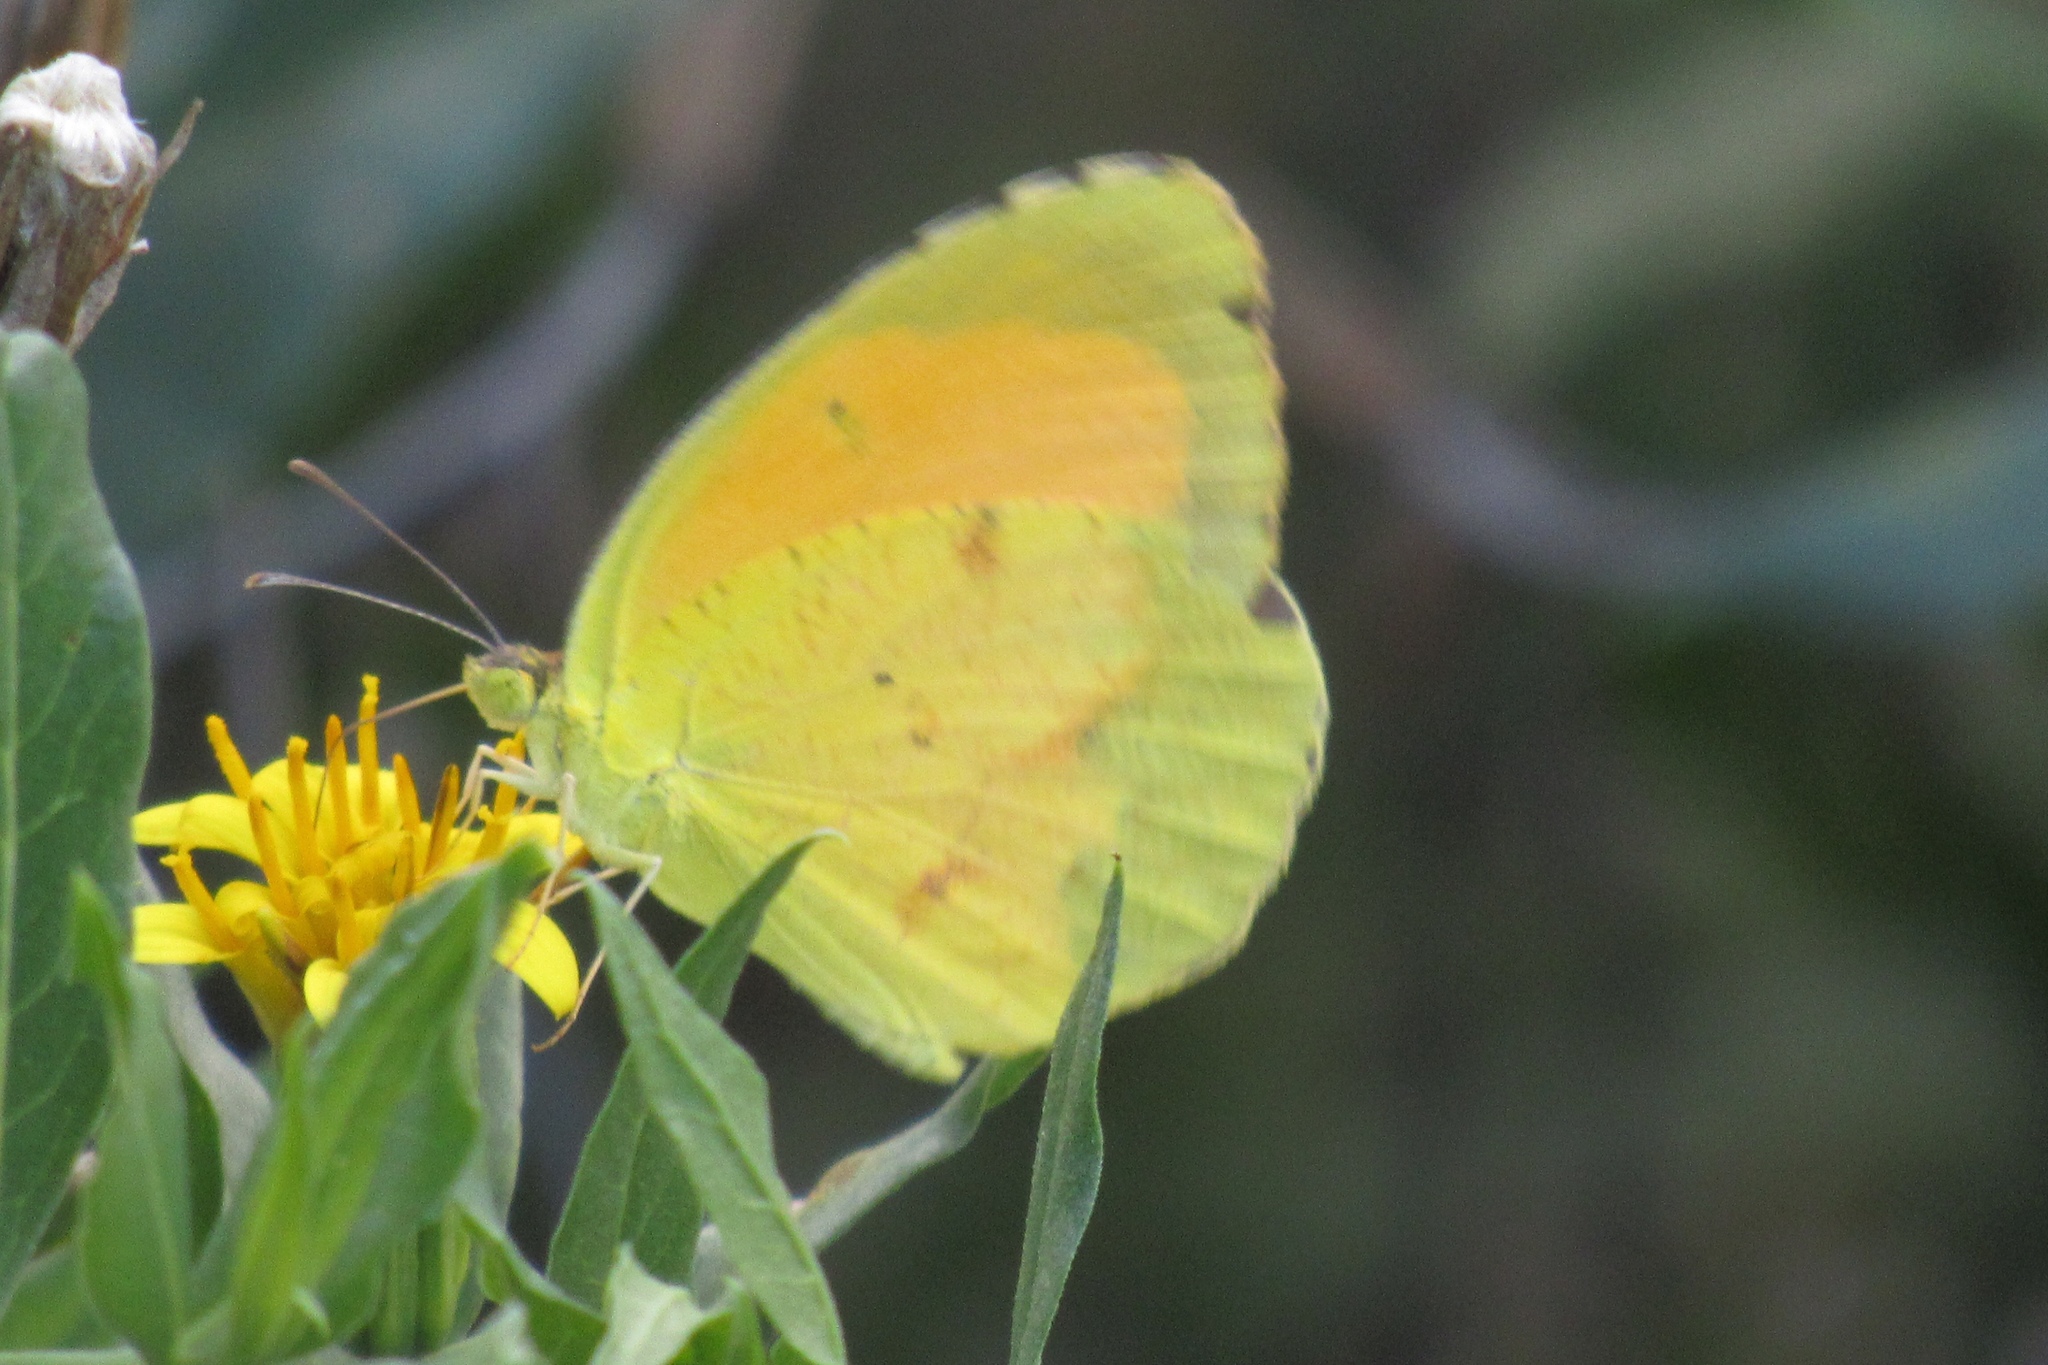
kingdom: Animalia
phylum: Arthropoda
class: Insecta
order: Lepidoptera
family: Pieridae
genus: Abaeis
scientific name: Abaeis nicippe
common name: Sleepy orange
